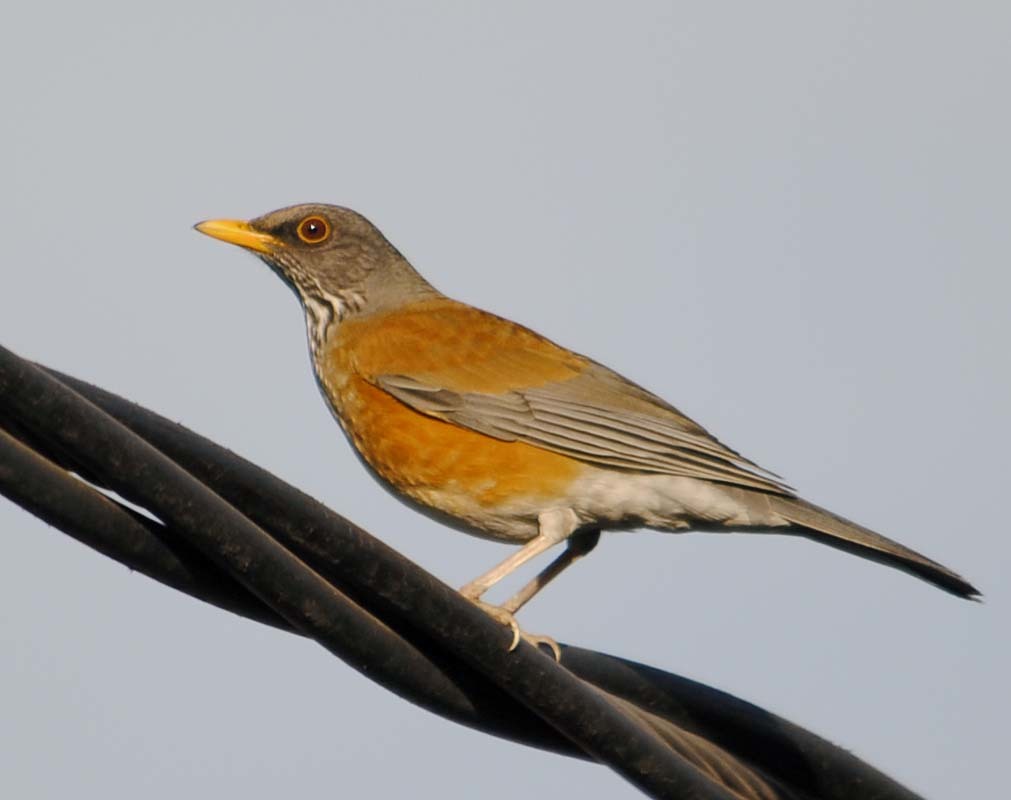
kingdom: Animalia
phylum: Chordata
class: Aves
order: Passeriformes
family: Turdidae
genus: Turdus
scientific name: Turdus rufopalliatus
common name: Rufous-backed robin
